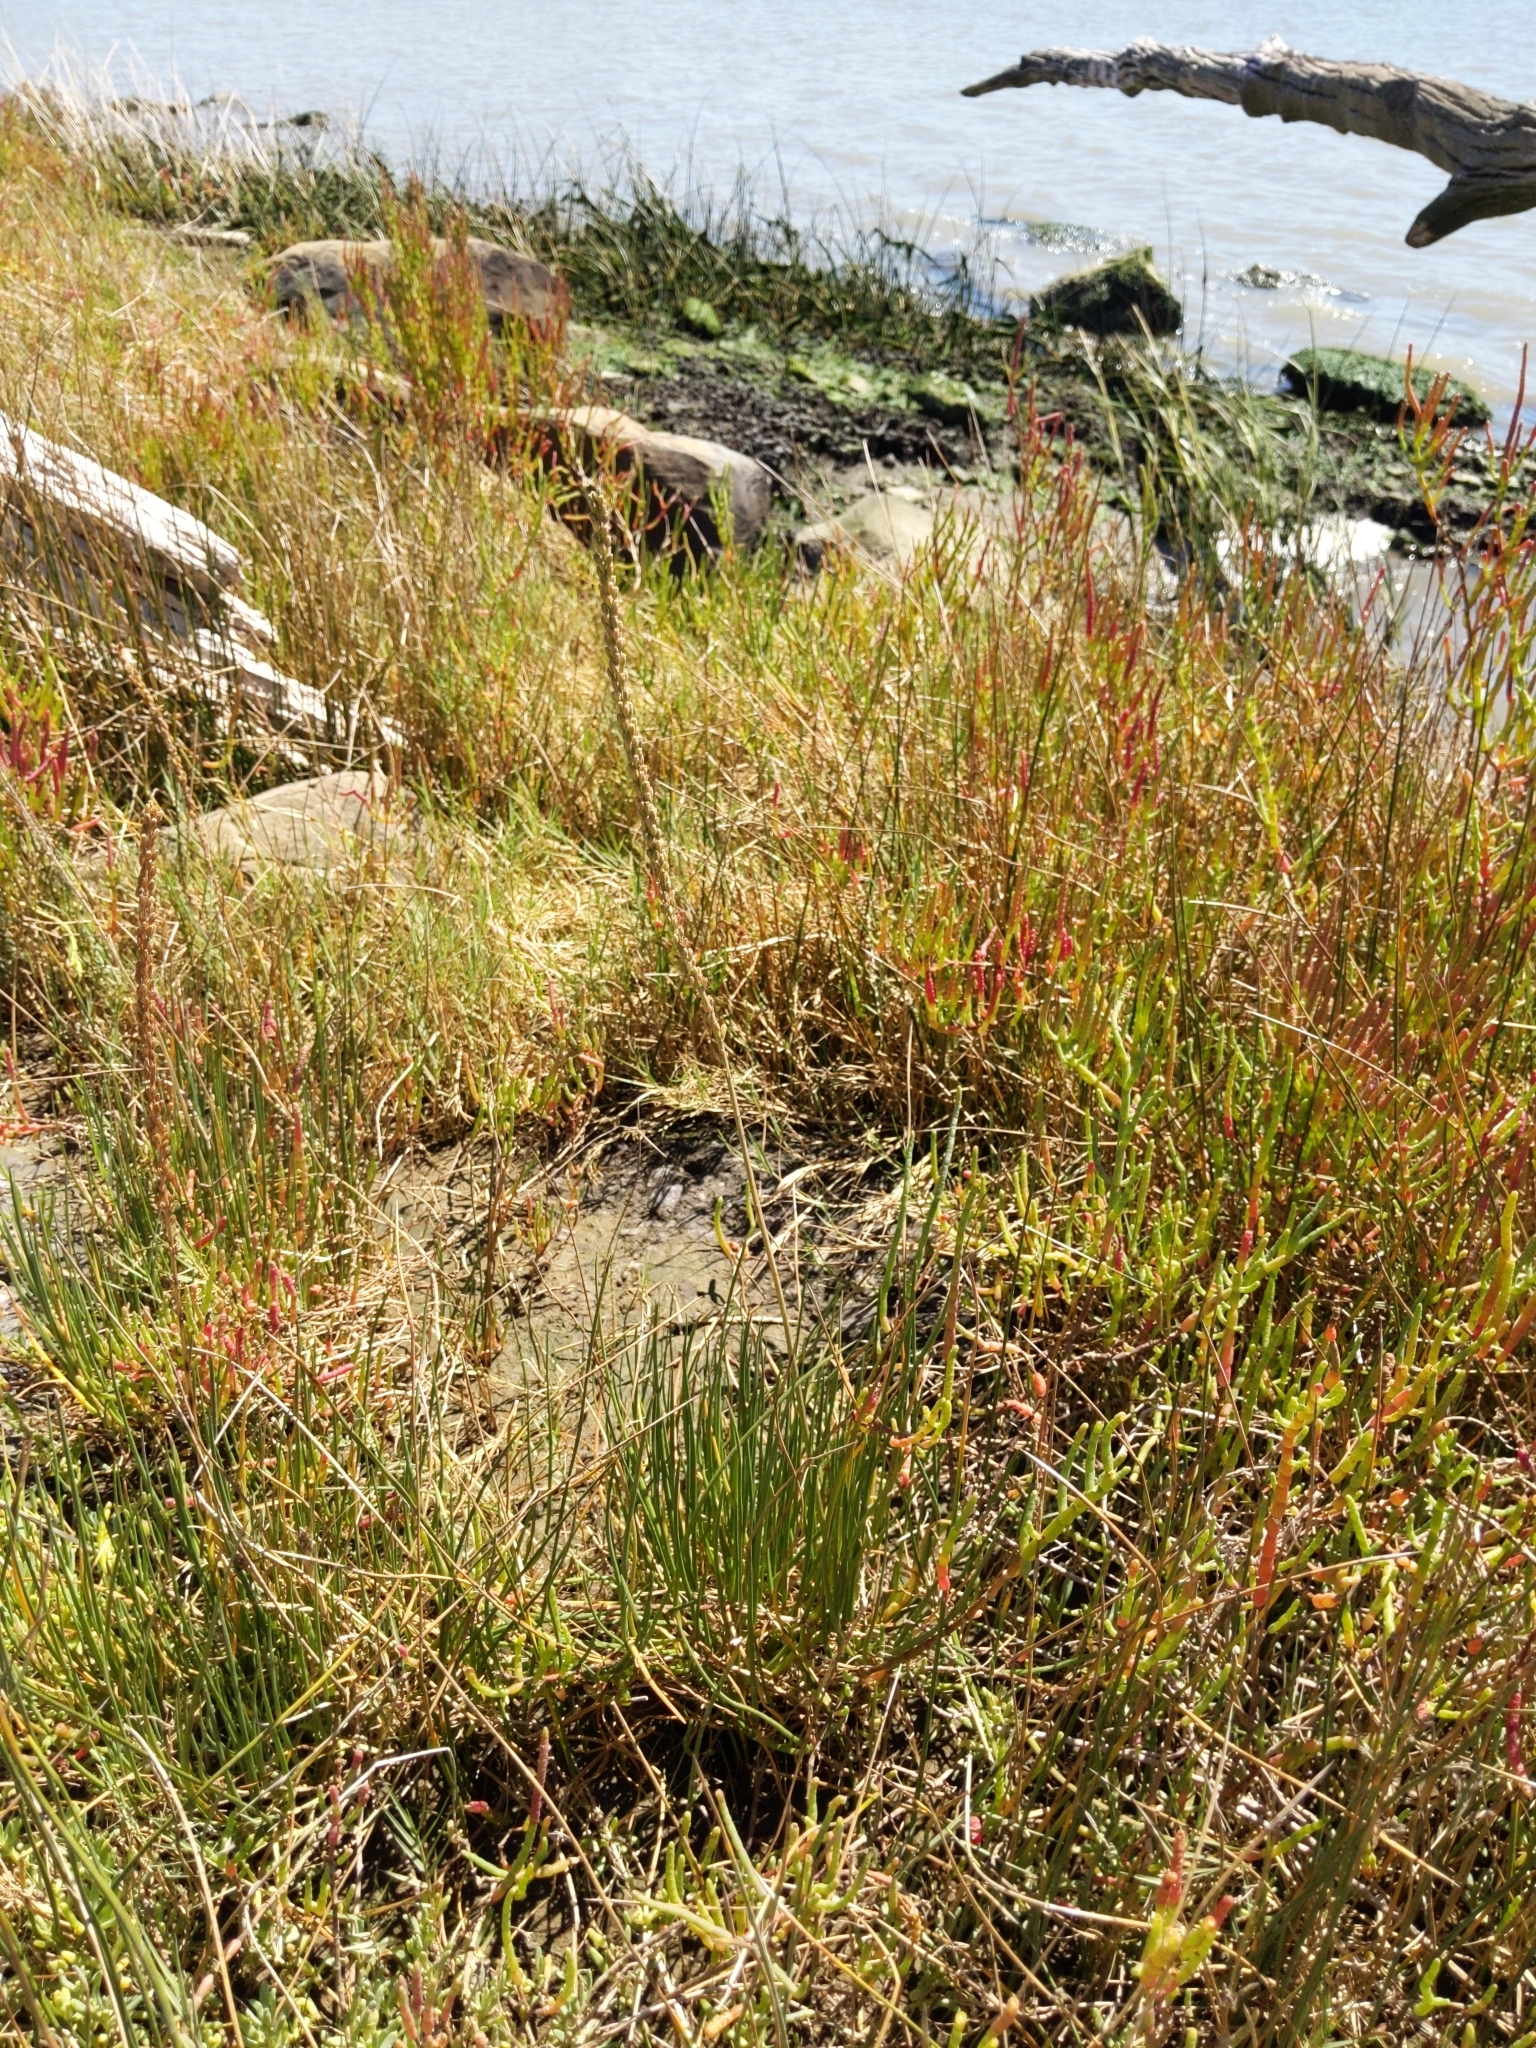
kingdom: Plantae
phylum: Tracheophyta
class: Liliopsida
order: Alismatales
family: Juncaginaceae
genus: Triglochin
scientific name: Triglochin maritima
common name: Sea arrowgrass
